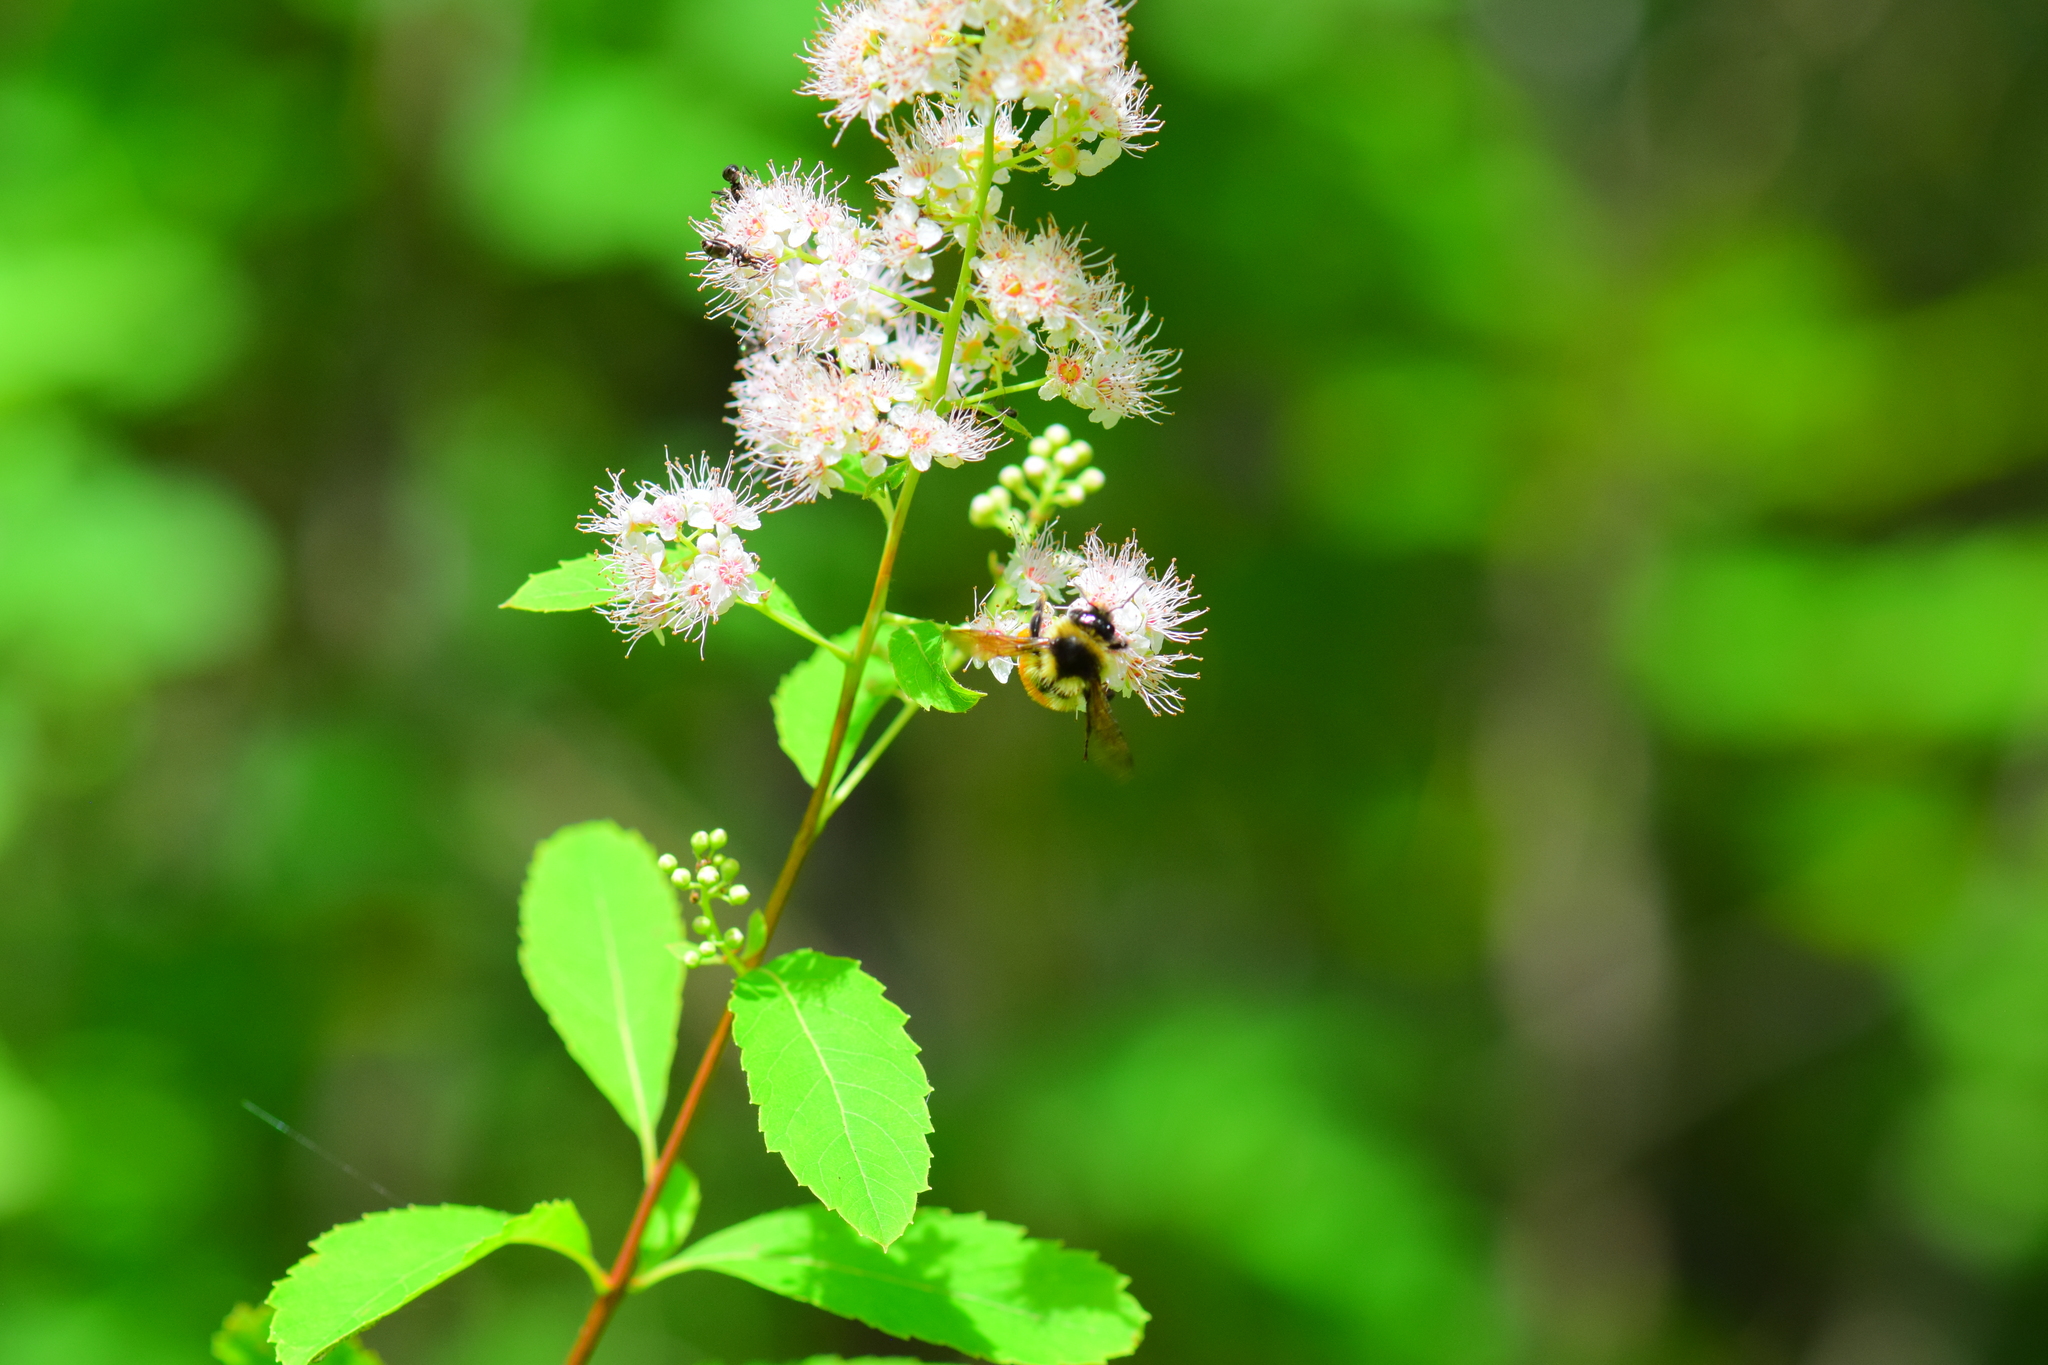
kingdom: Animalia
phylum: Arthropoda
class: Insecta
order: Hymenoptera
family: Apidae
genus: Bombus
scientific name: Bombus ternarius
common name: Tri-colored bumble bee
